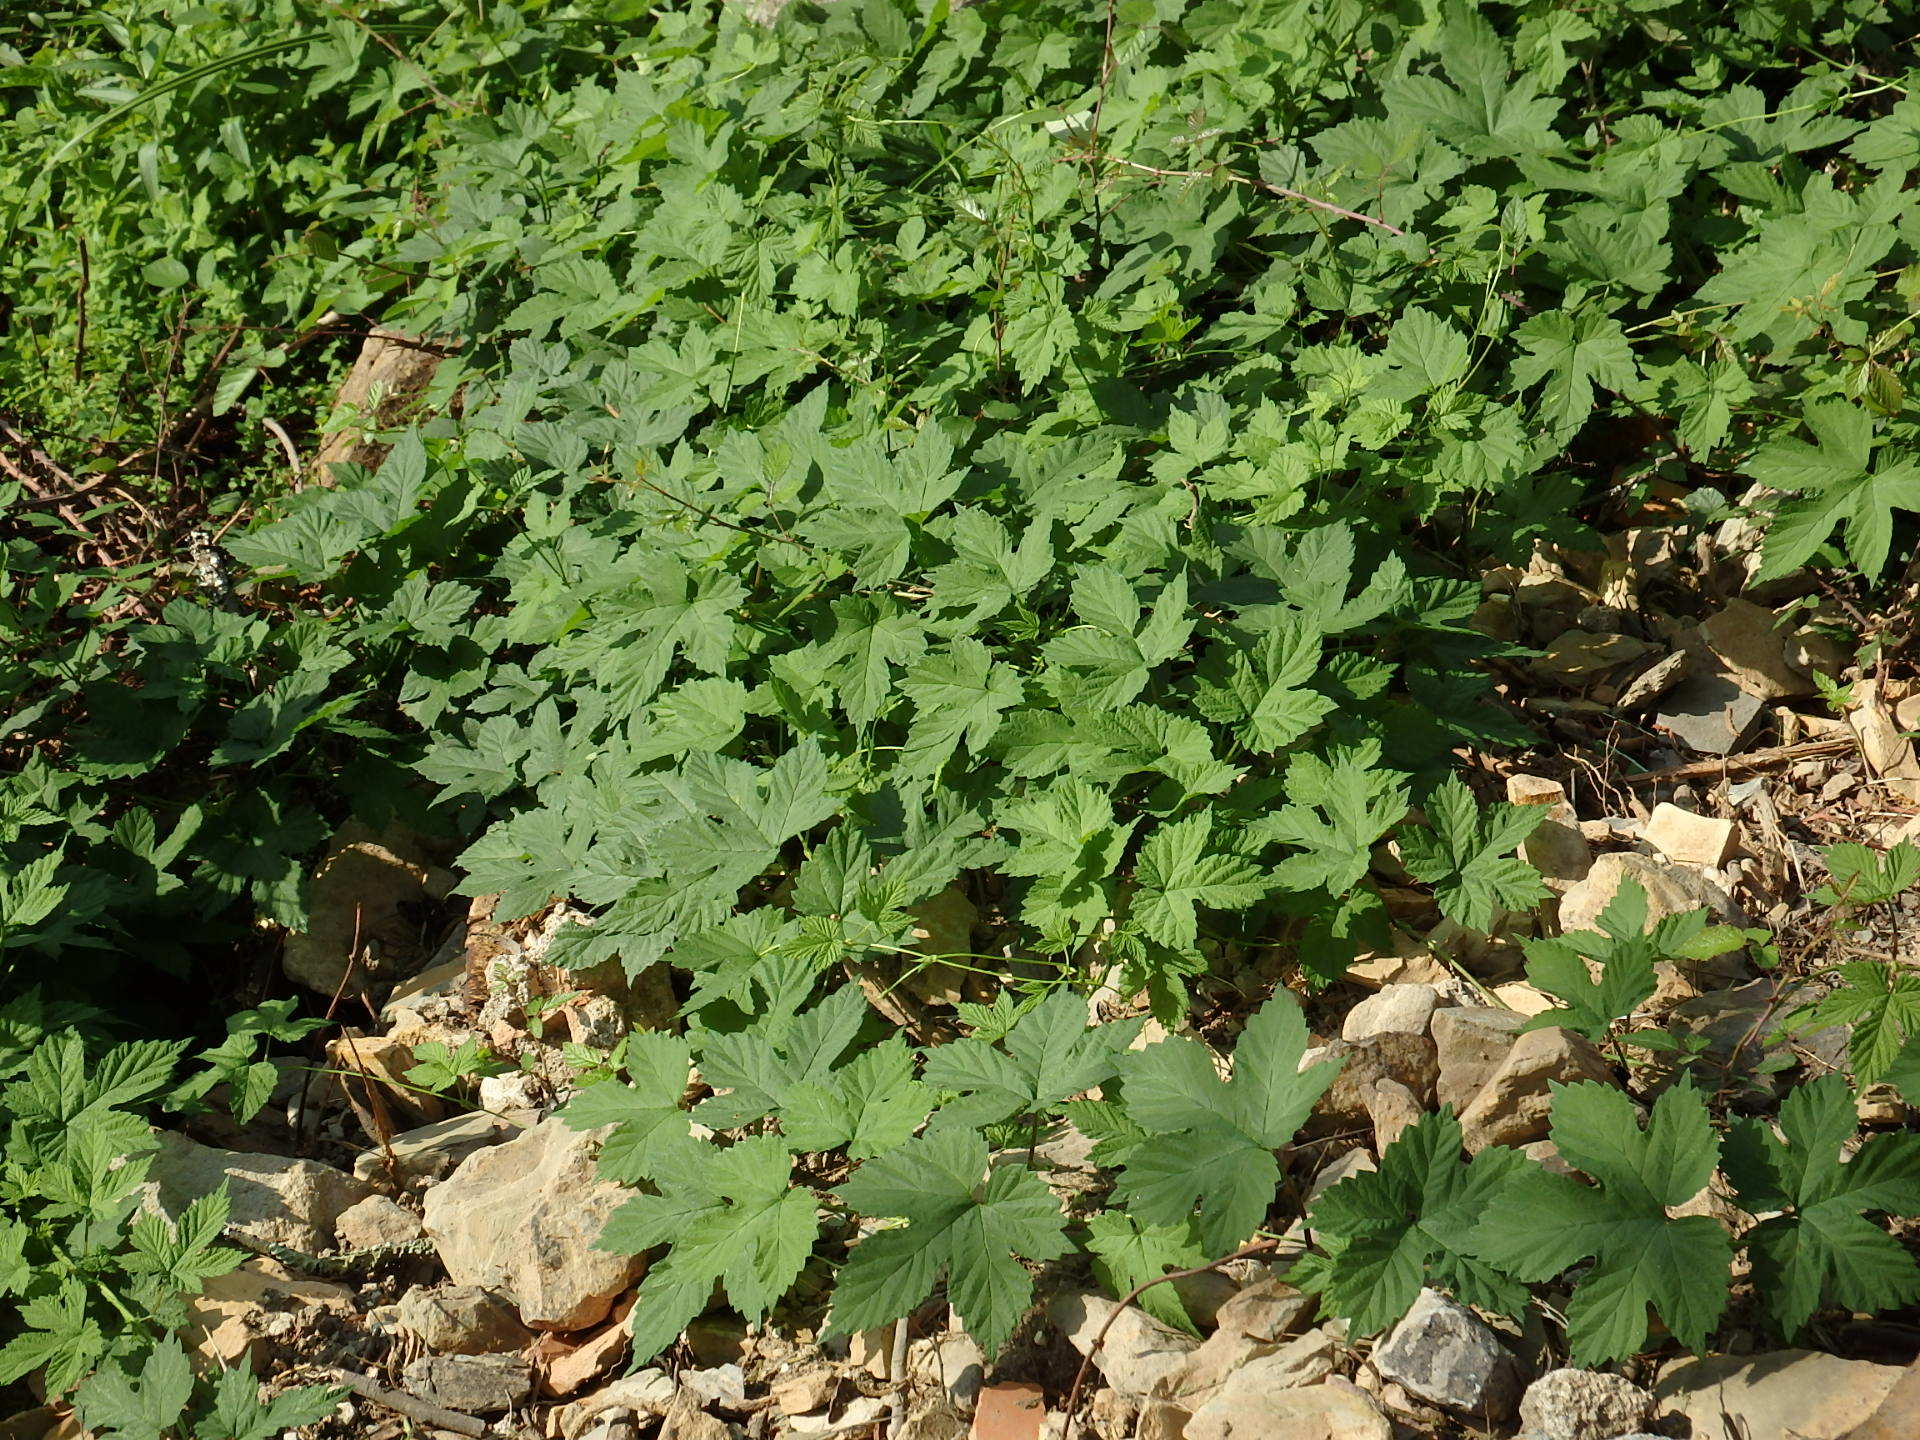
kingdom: Plantae
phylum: Tracheophyta
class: Magnoliopsida
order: Rosales
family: Cannabaceae
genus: Humulus
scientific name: Humulus lupulus
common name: Hop
